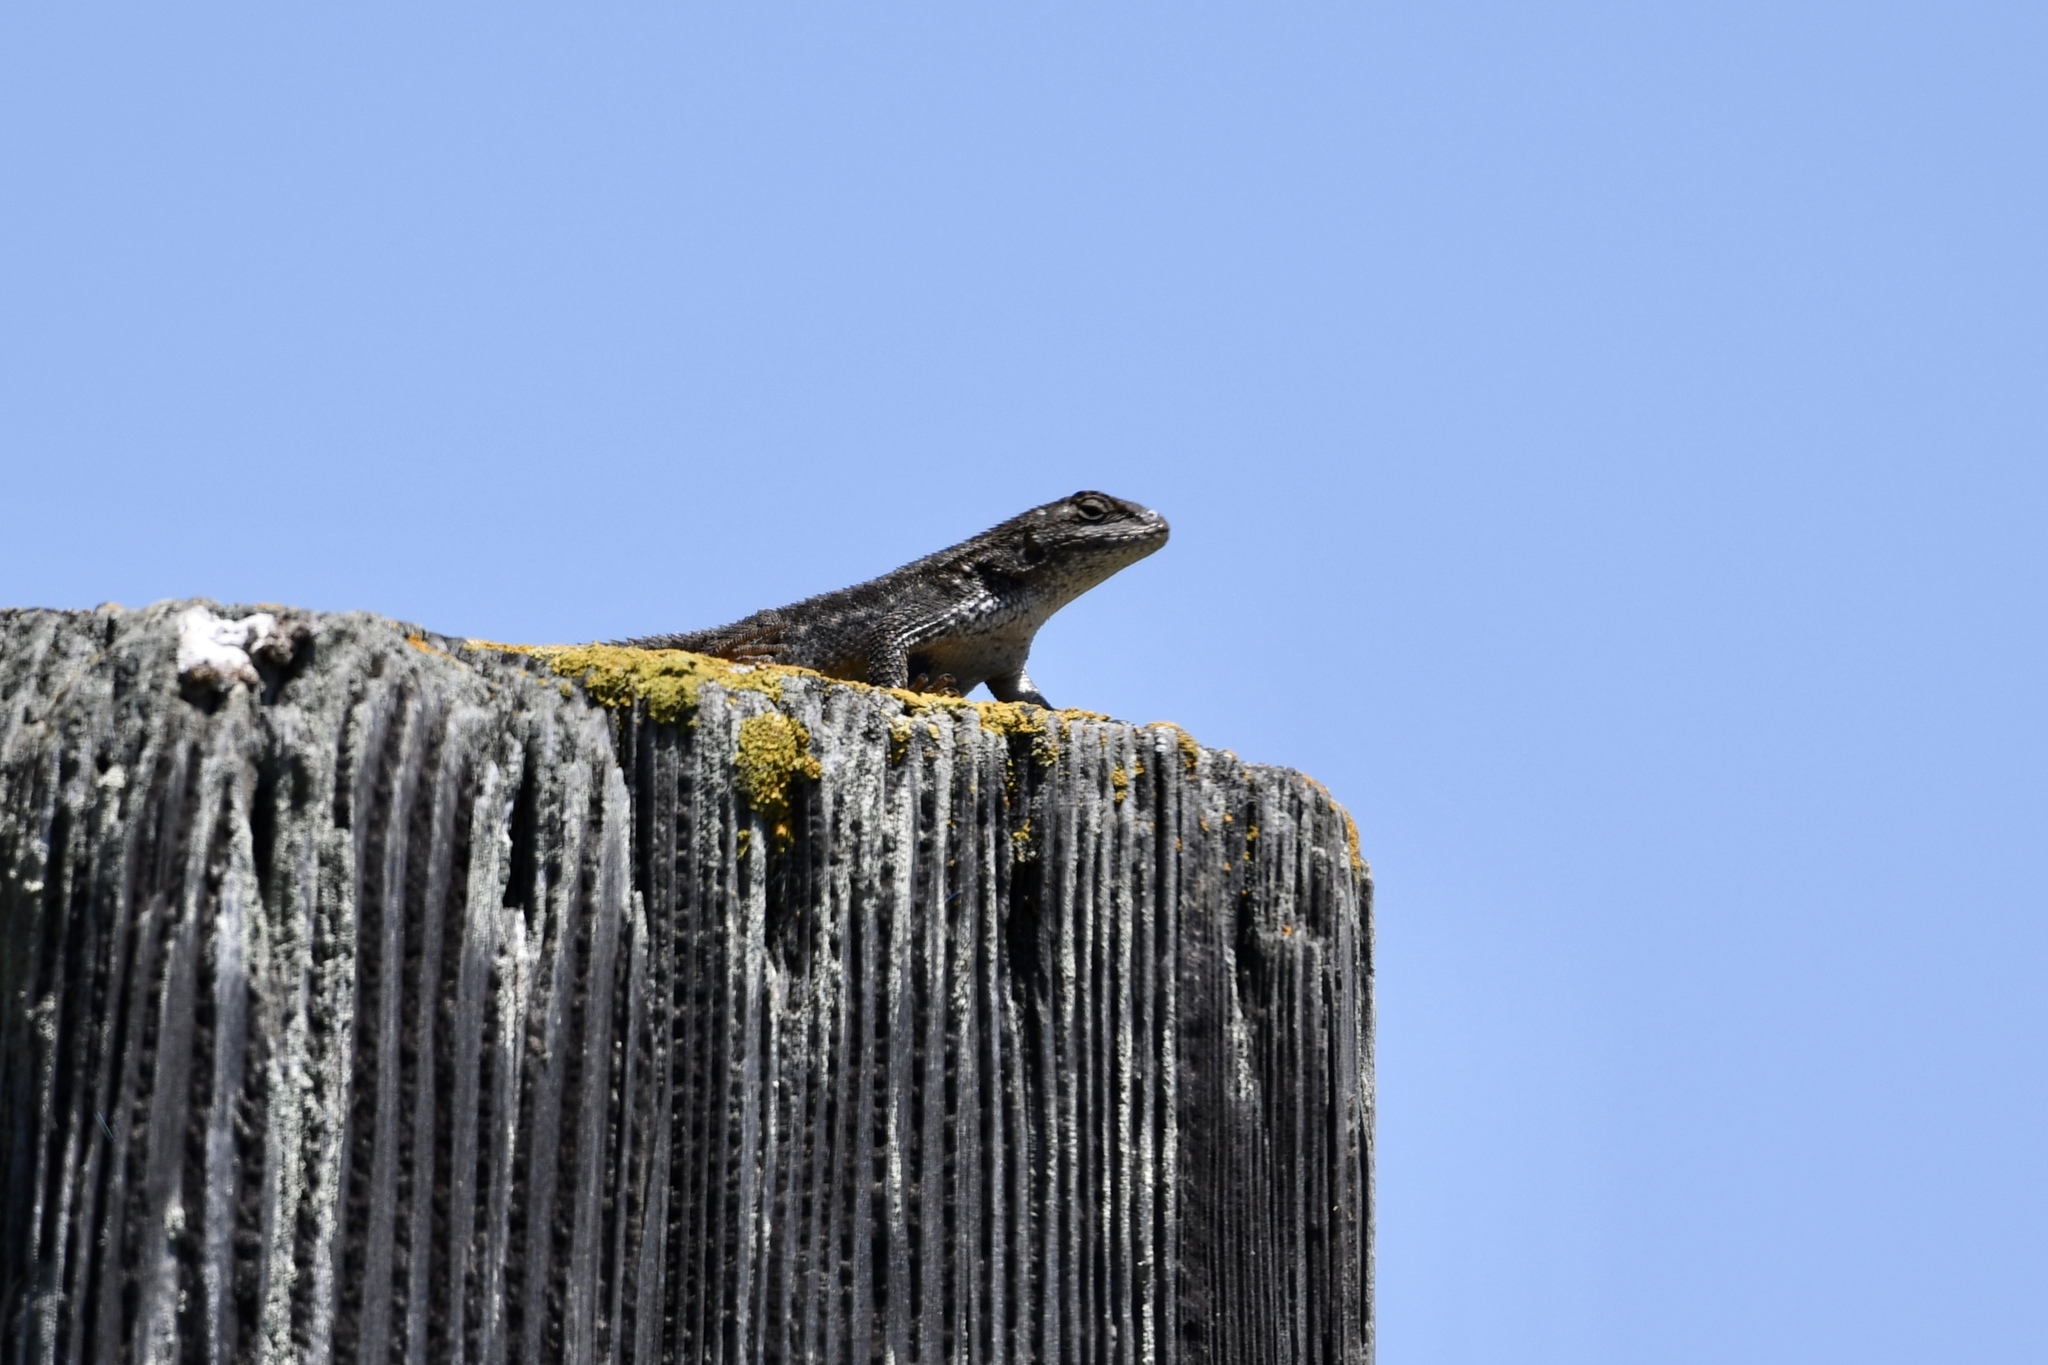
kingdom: Animalia
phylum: Chordata
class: Squamata
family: Phrynosomatidae
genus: Sceloporus
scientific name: Sceloporus occidentalis
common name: Western fence lizard
